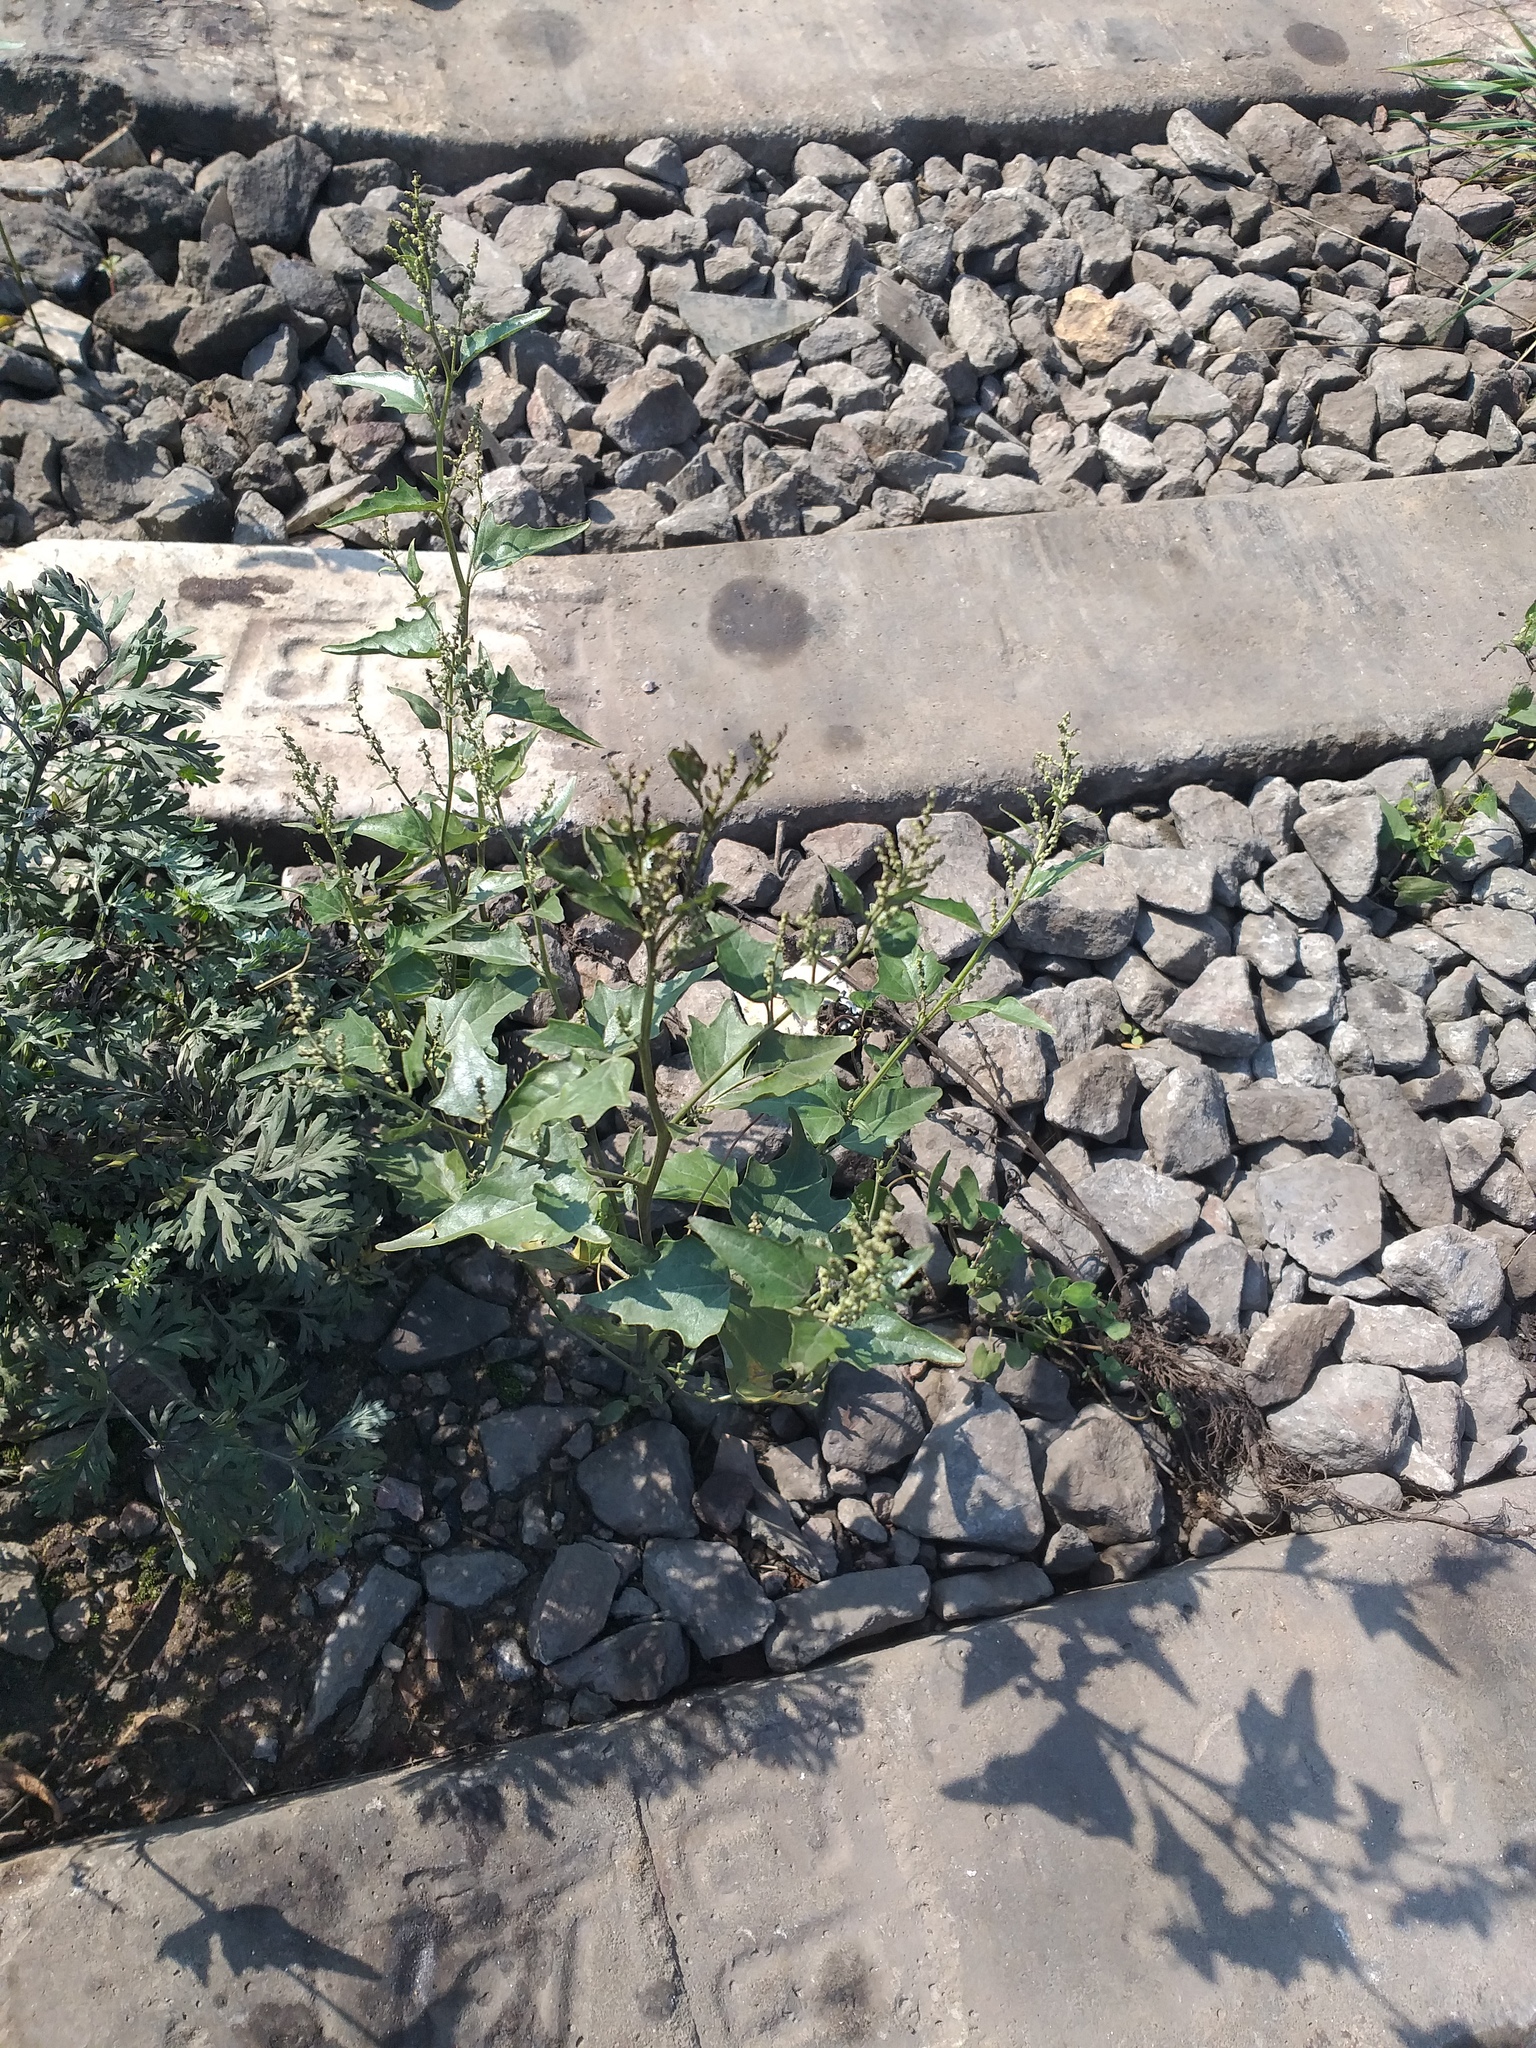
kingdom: Plantae
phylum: Tracheophyta
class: Magnoliopsida
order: Caryophyllales
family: Amaranthaceae
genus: Atriplex
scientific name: Atriplex sagittata
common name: Purple orache
